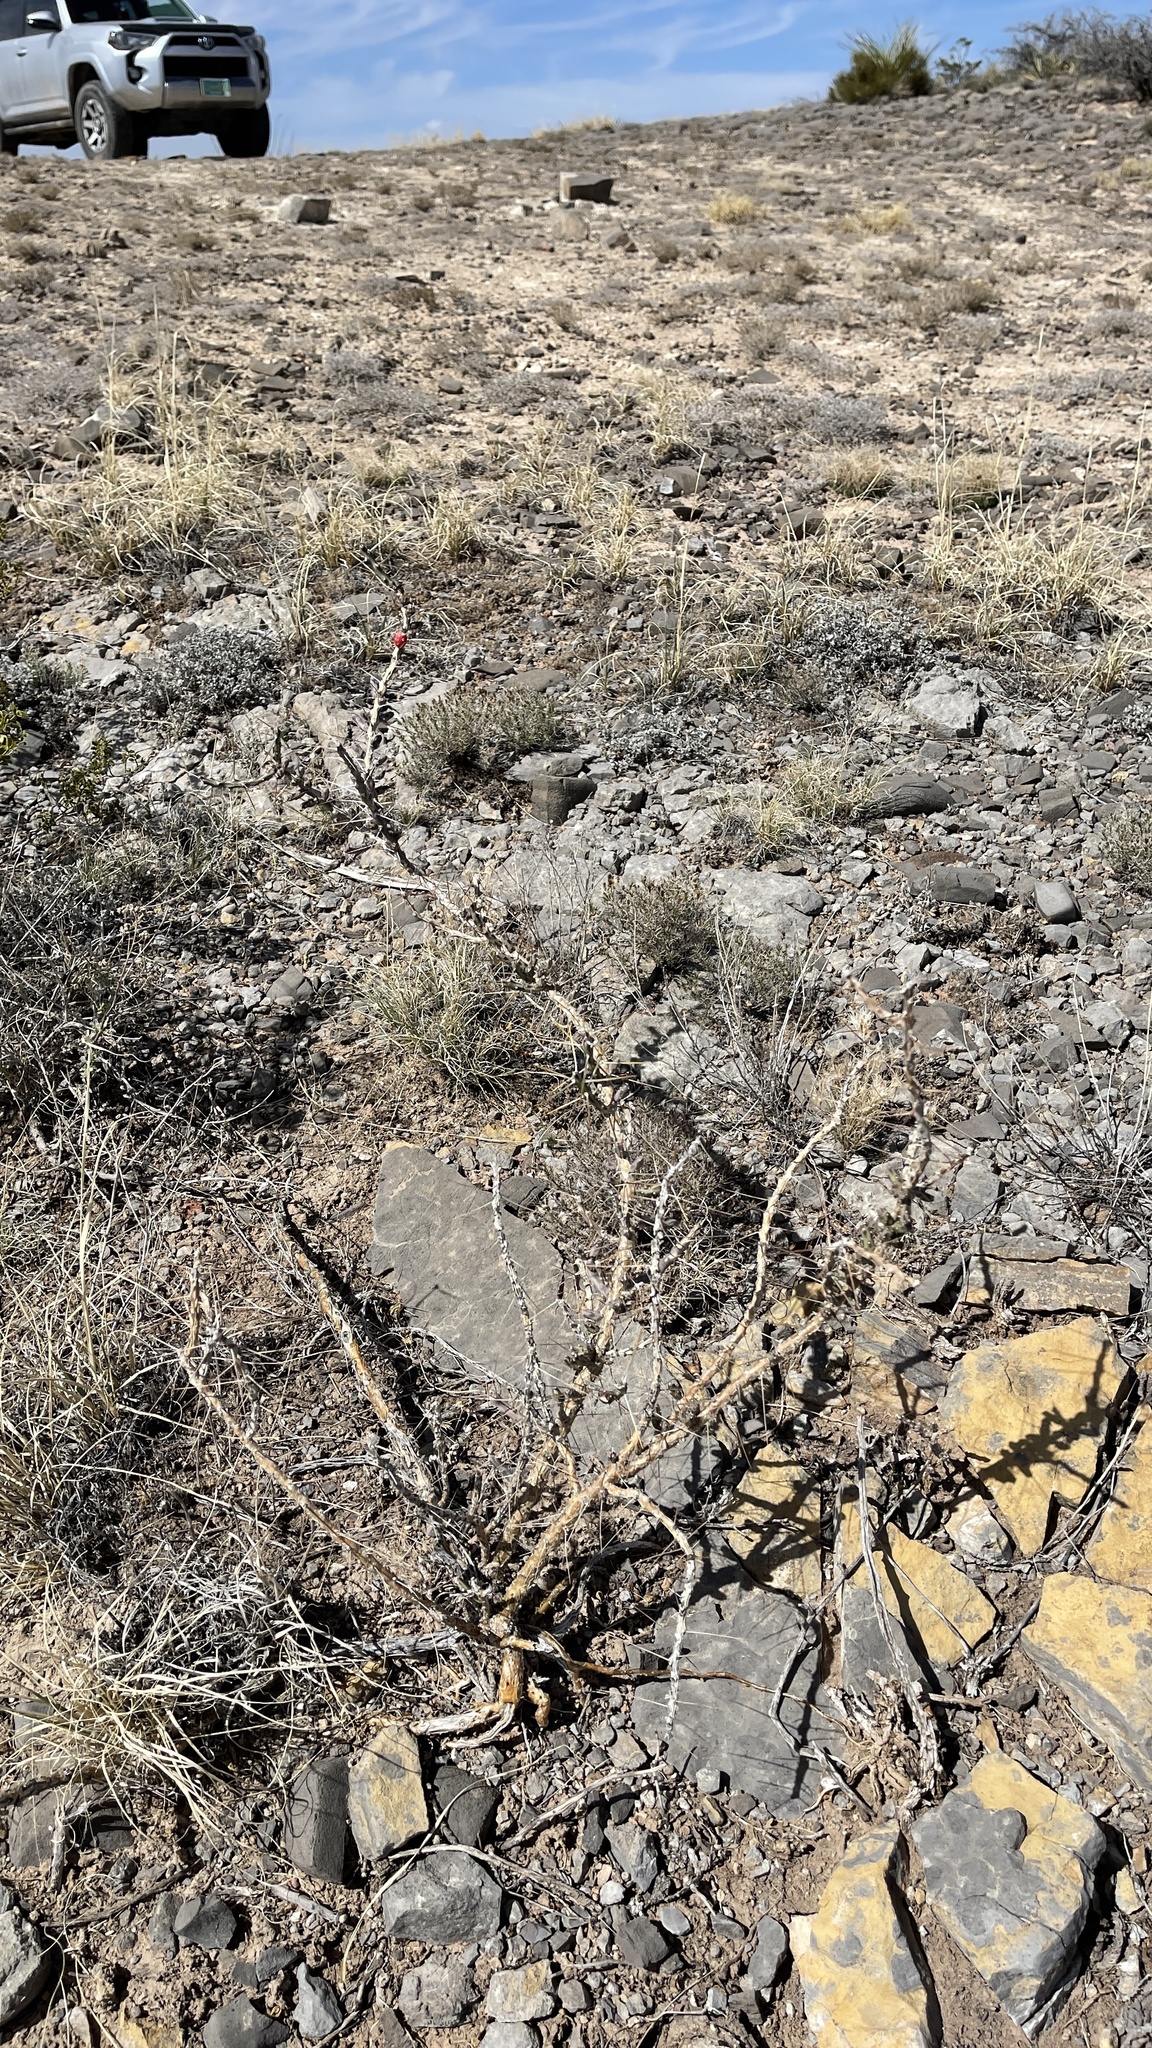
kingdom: Plantae
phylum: Tracheophyta
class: Magnoliopsida
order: Caryophyllales
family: Cactaceae
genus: Cylindropuntia
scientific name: Cylindropuntia leptocaulis
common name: Christmas cactus
